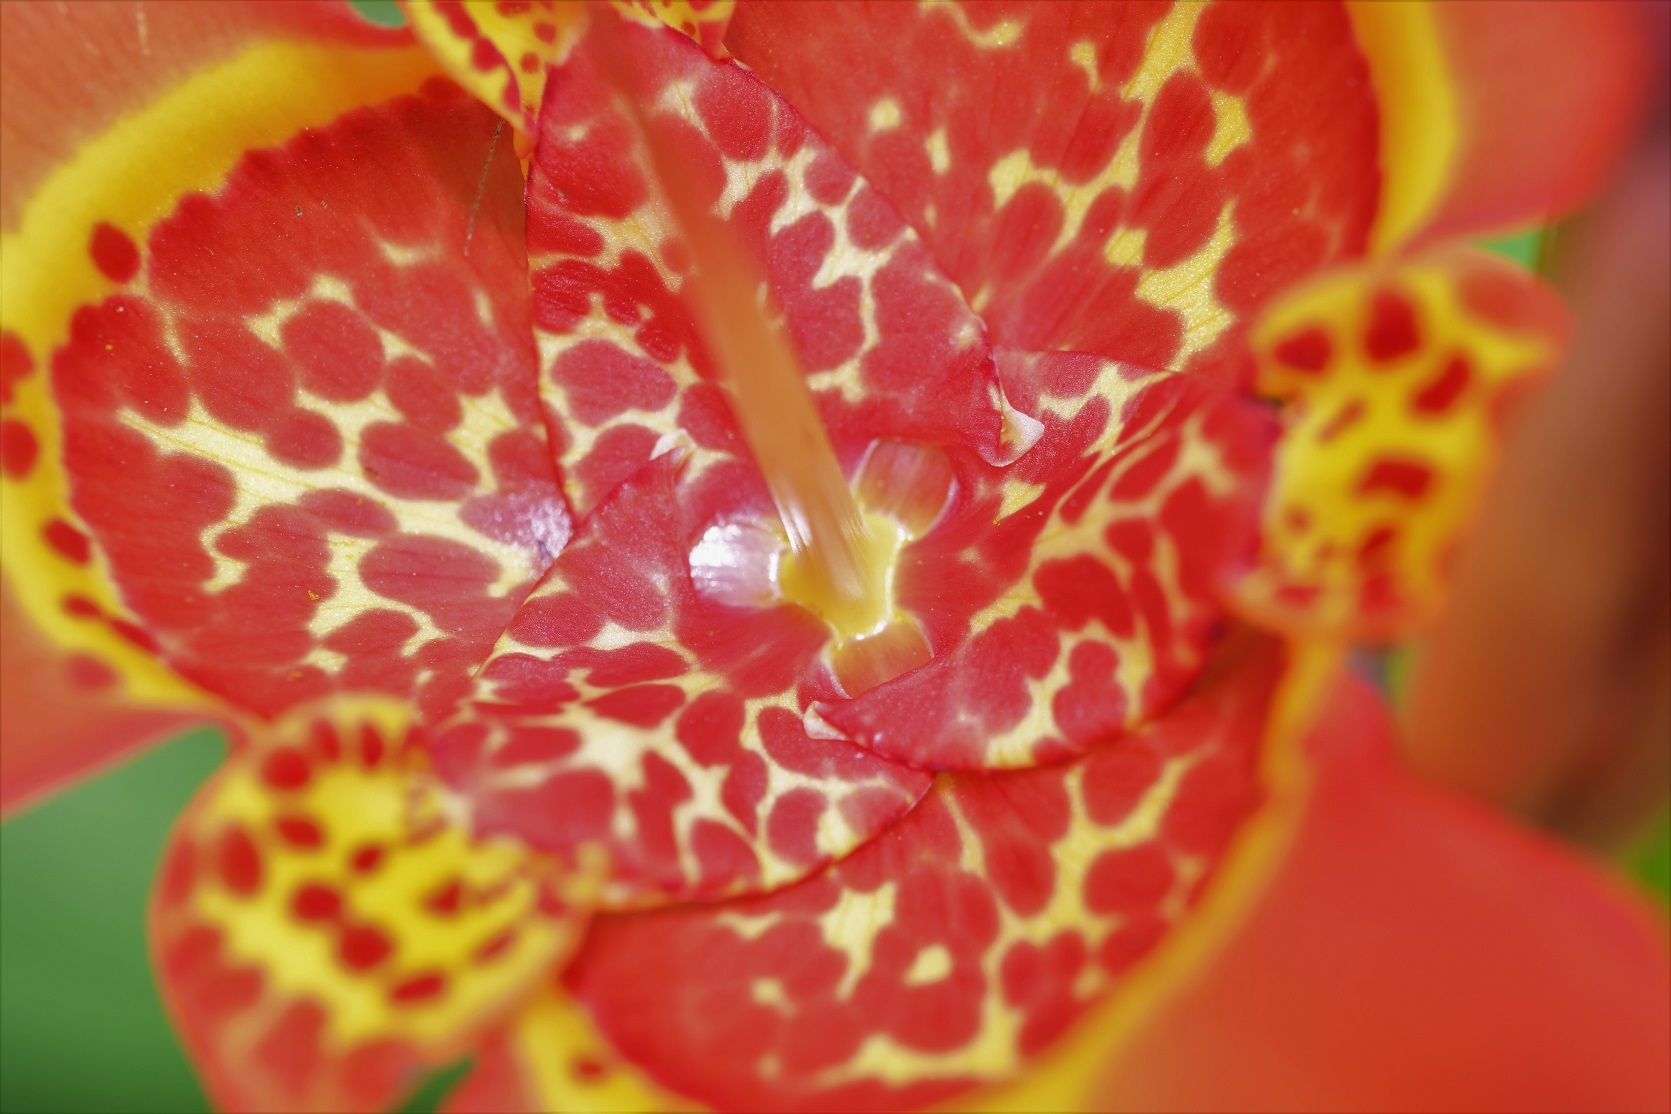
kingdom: Plantae
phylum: Tracheophyta
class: Liliopsida
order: Asparagales
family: Iridaceae
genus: Tigridia
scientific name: Tigridia pavonia
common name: Peacock-flower
